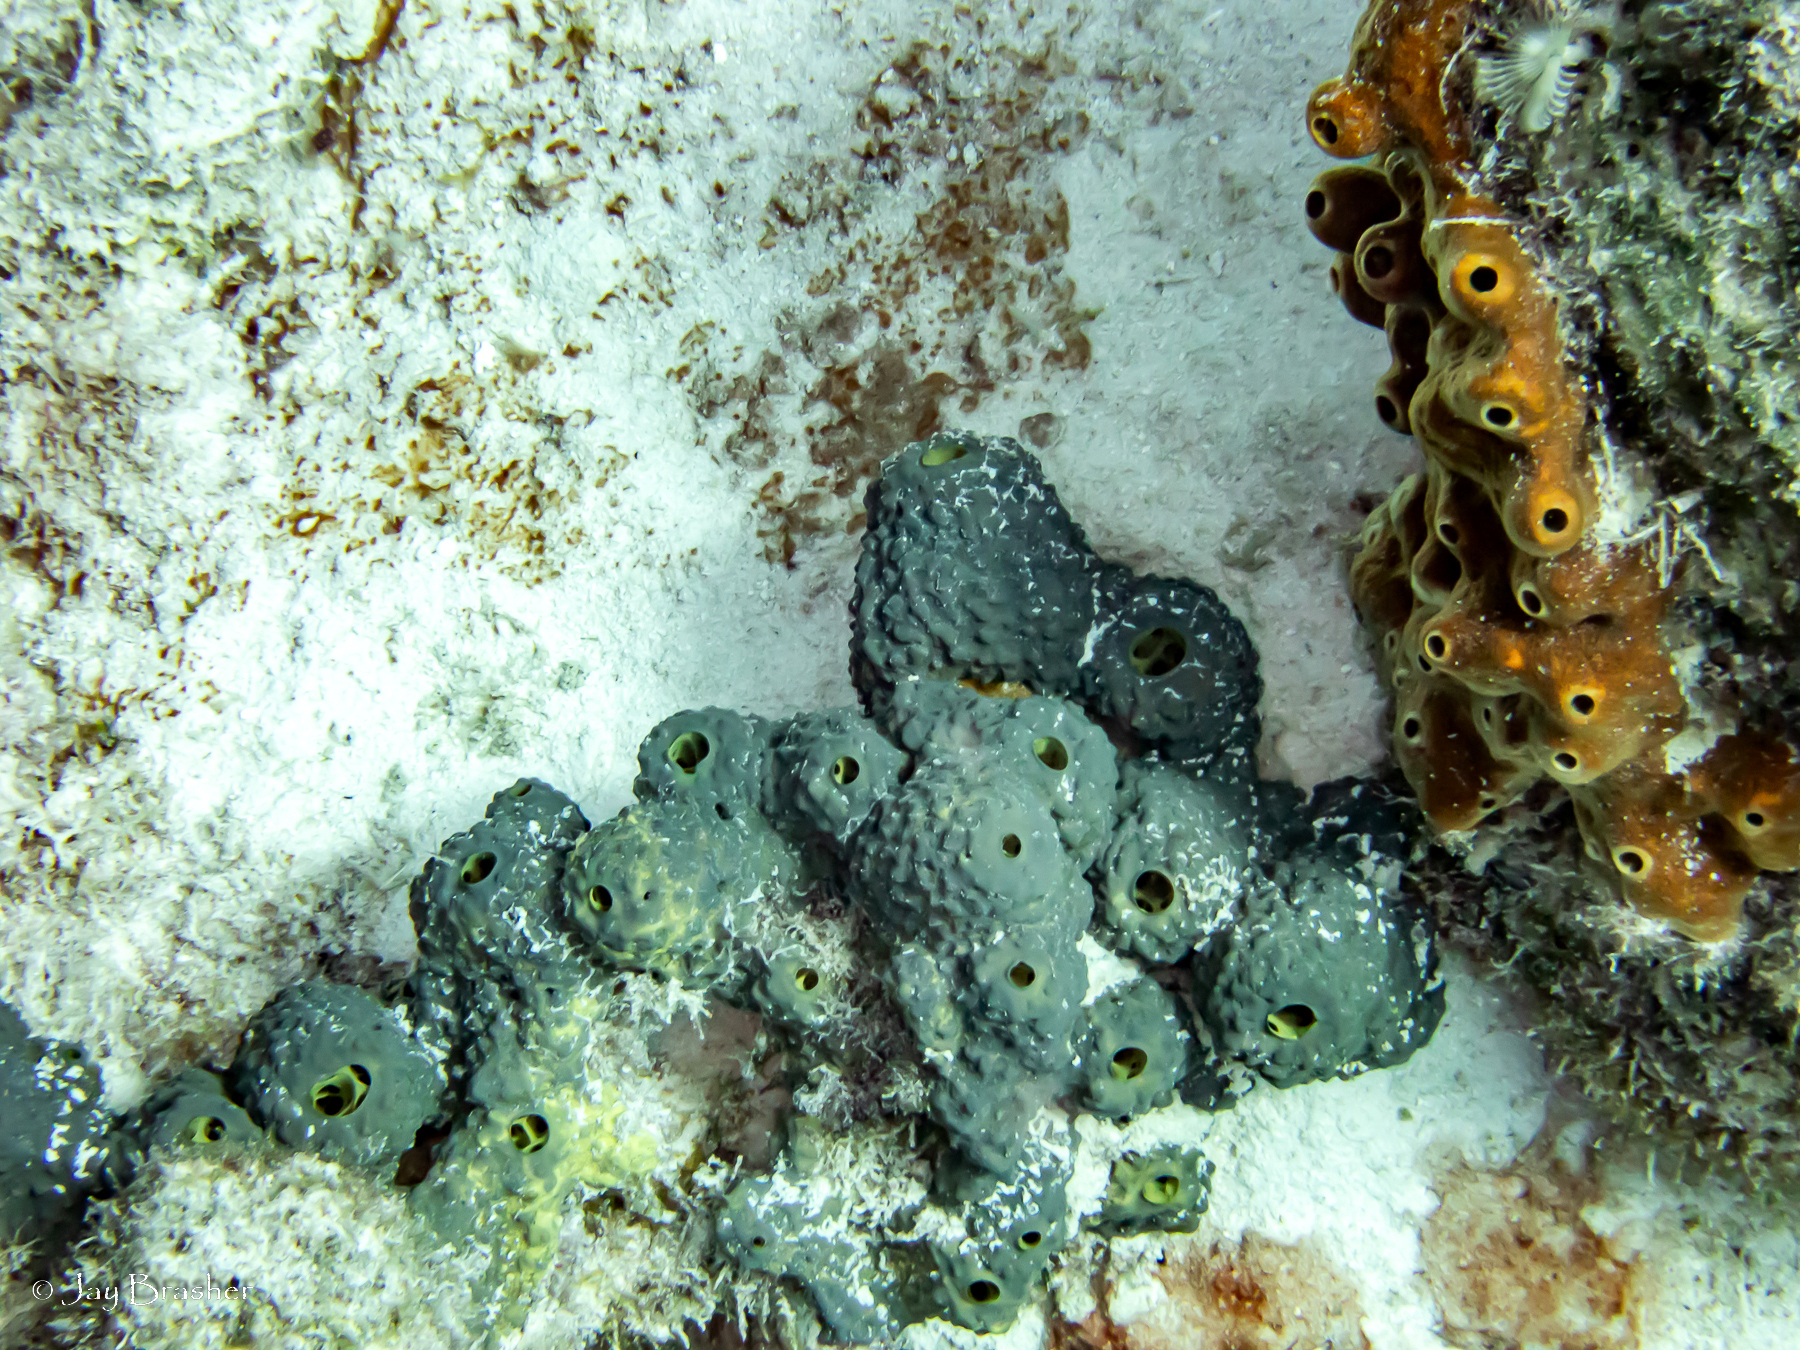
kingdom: Animalia
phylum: Porifera
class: Demospongiae
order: Verongiida
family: Aplysinidae
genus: Aiolochroia
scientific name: Aiolochroia crassa
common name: Branching tube sponge
